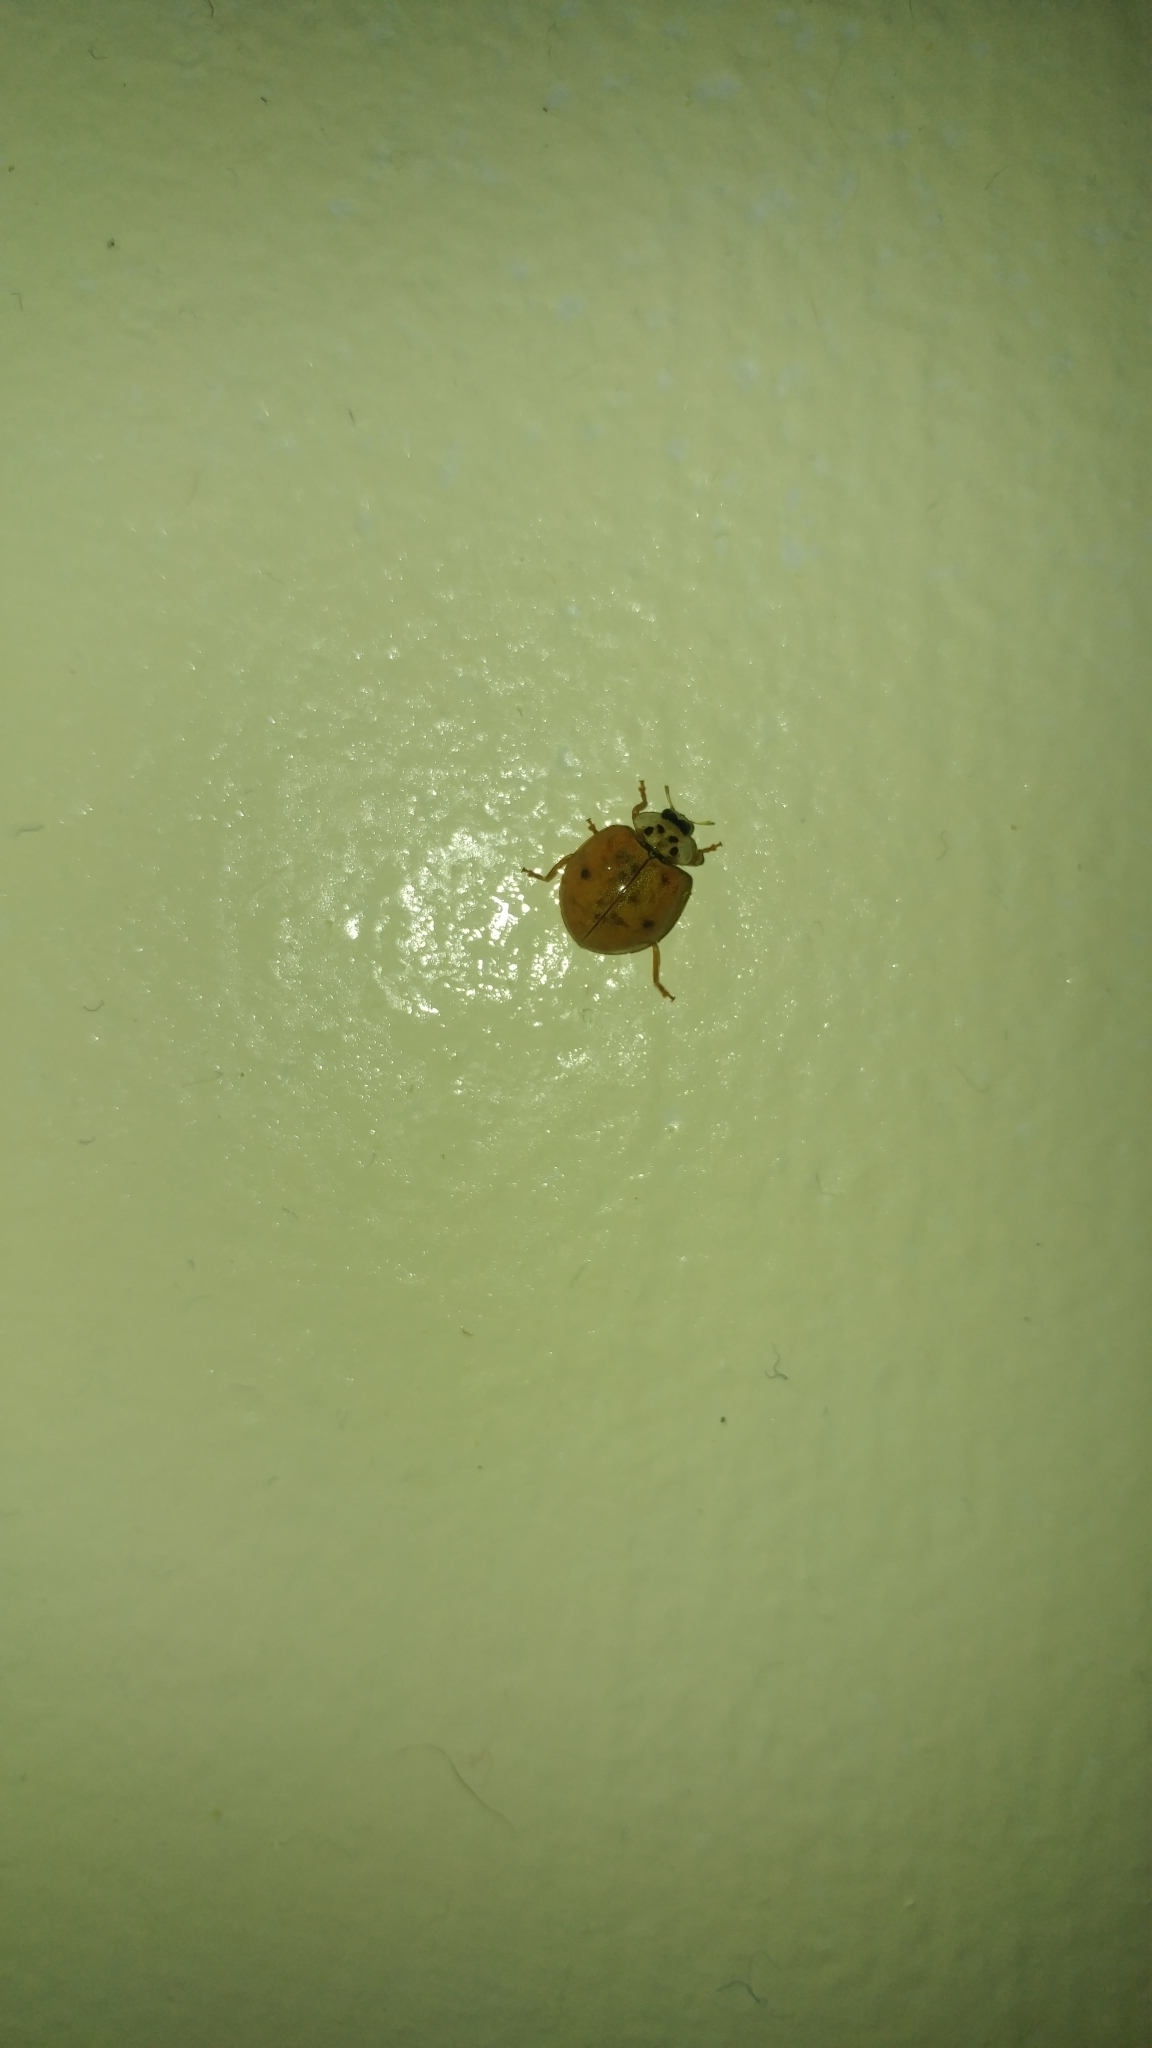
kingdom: Animalia
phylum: Arthropoda
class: Insecta
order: Coleoptera
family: Coccinellidae
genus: Harmonia
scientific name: Harmonia axyridis
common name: Harlequin ladybird
